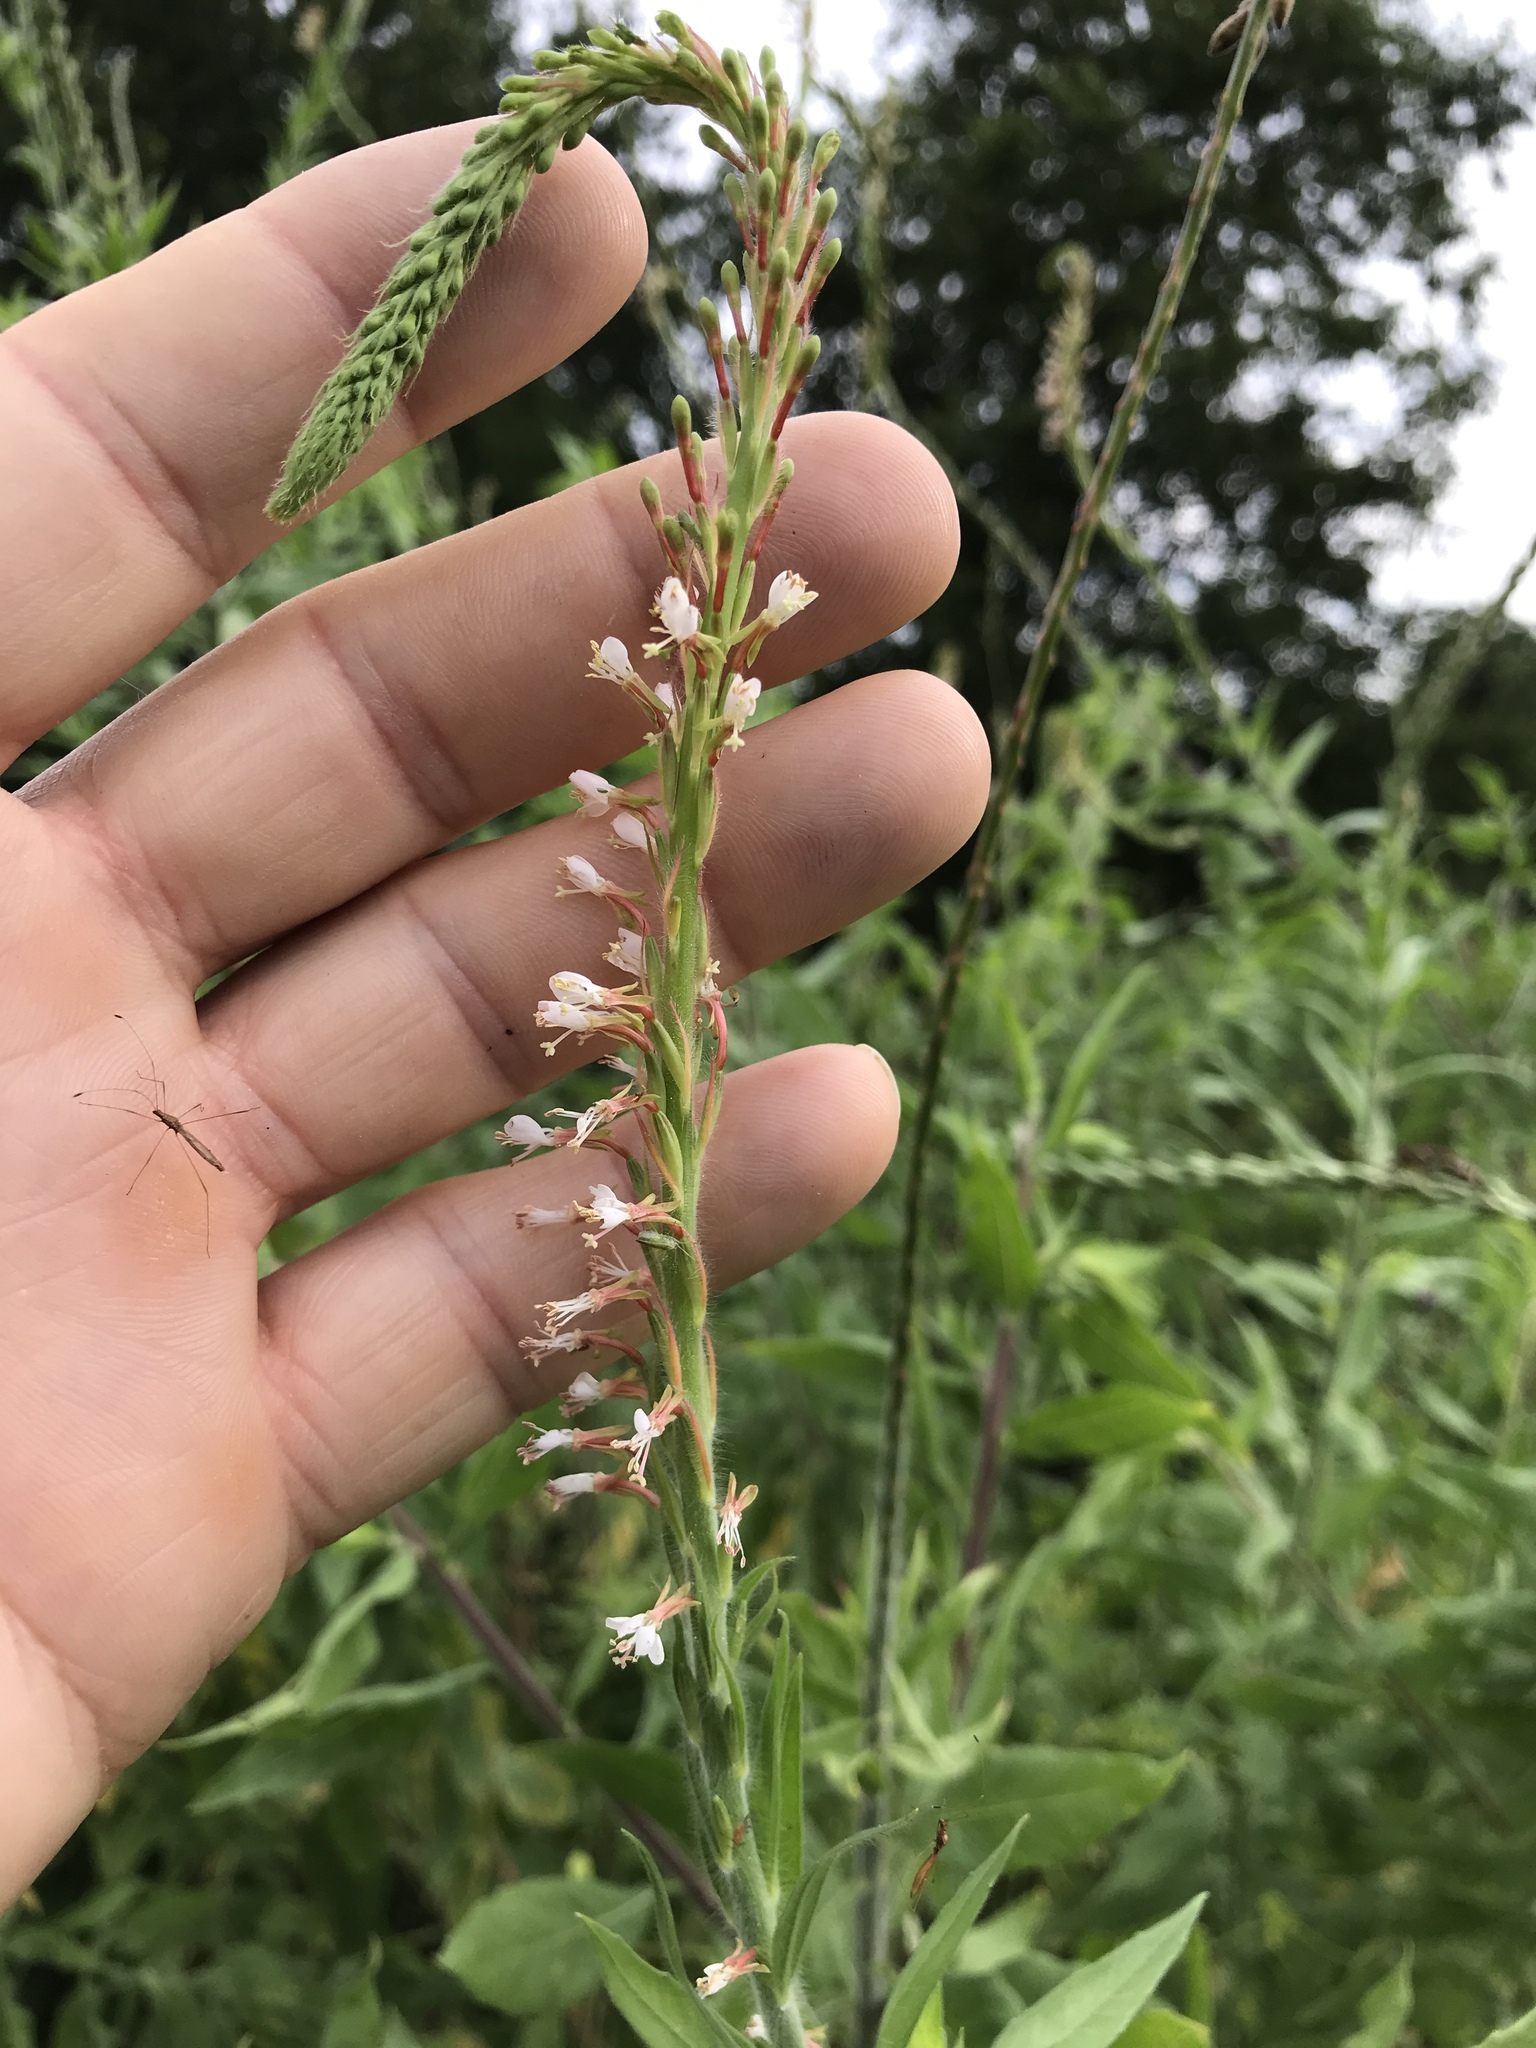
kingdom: Plantae
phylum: Tracheophyta
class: Magnoliopsida
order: Myrtales
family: Onagraceae
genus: Oenothera
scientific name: Oenothera curtiflora
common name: Velvetweed
